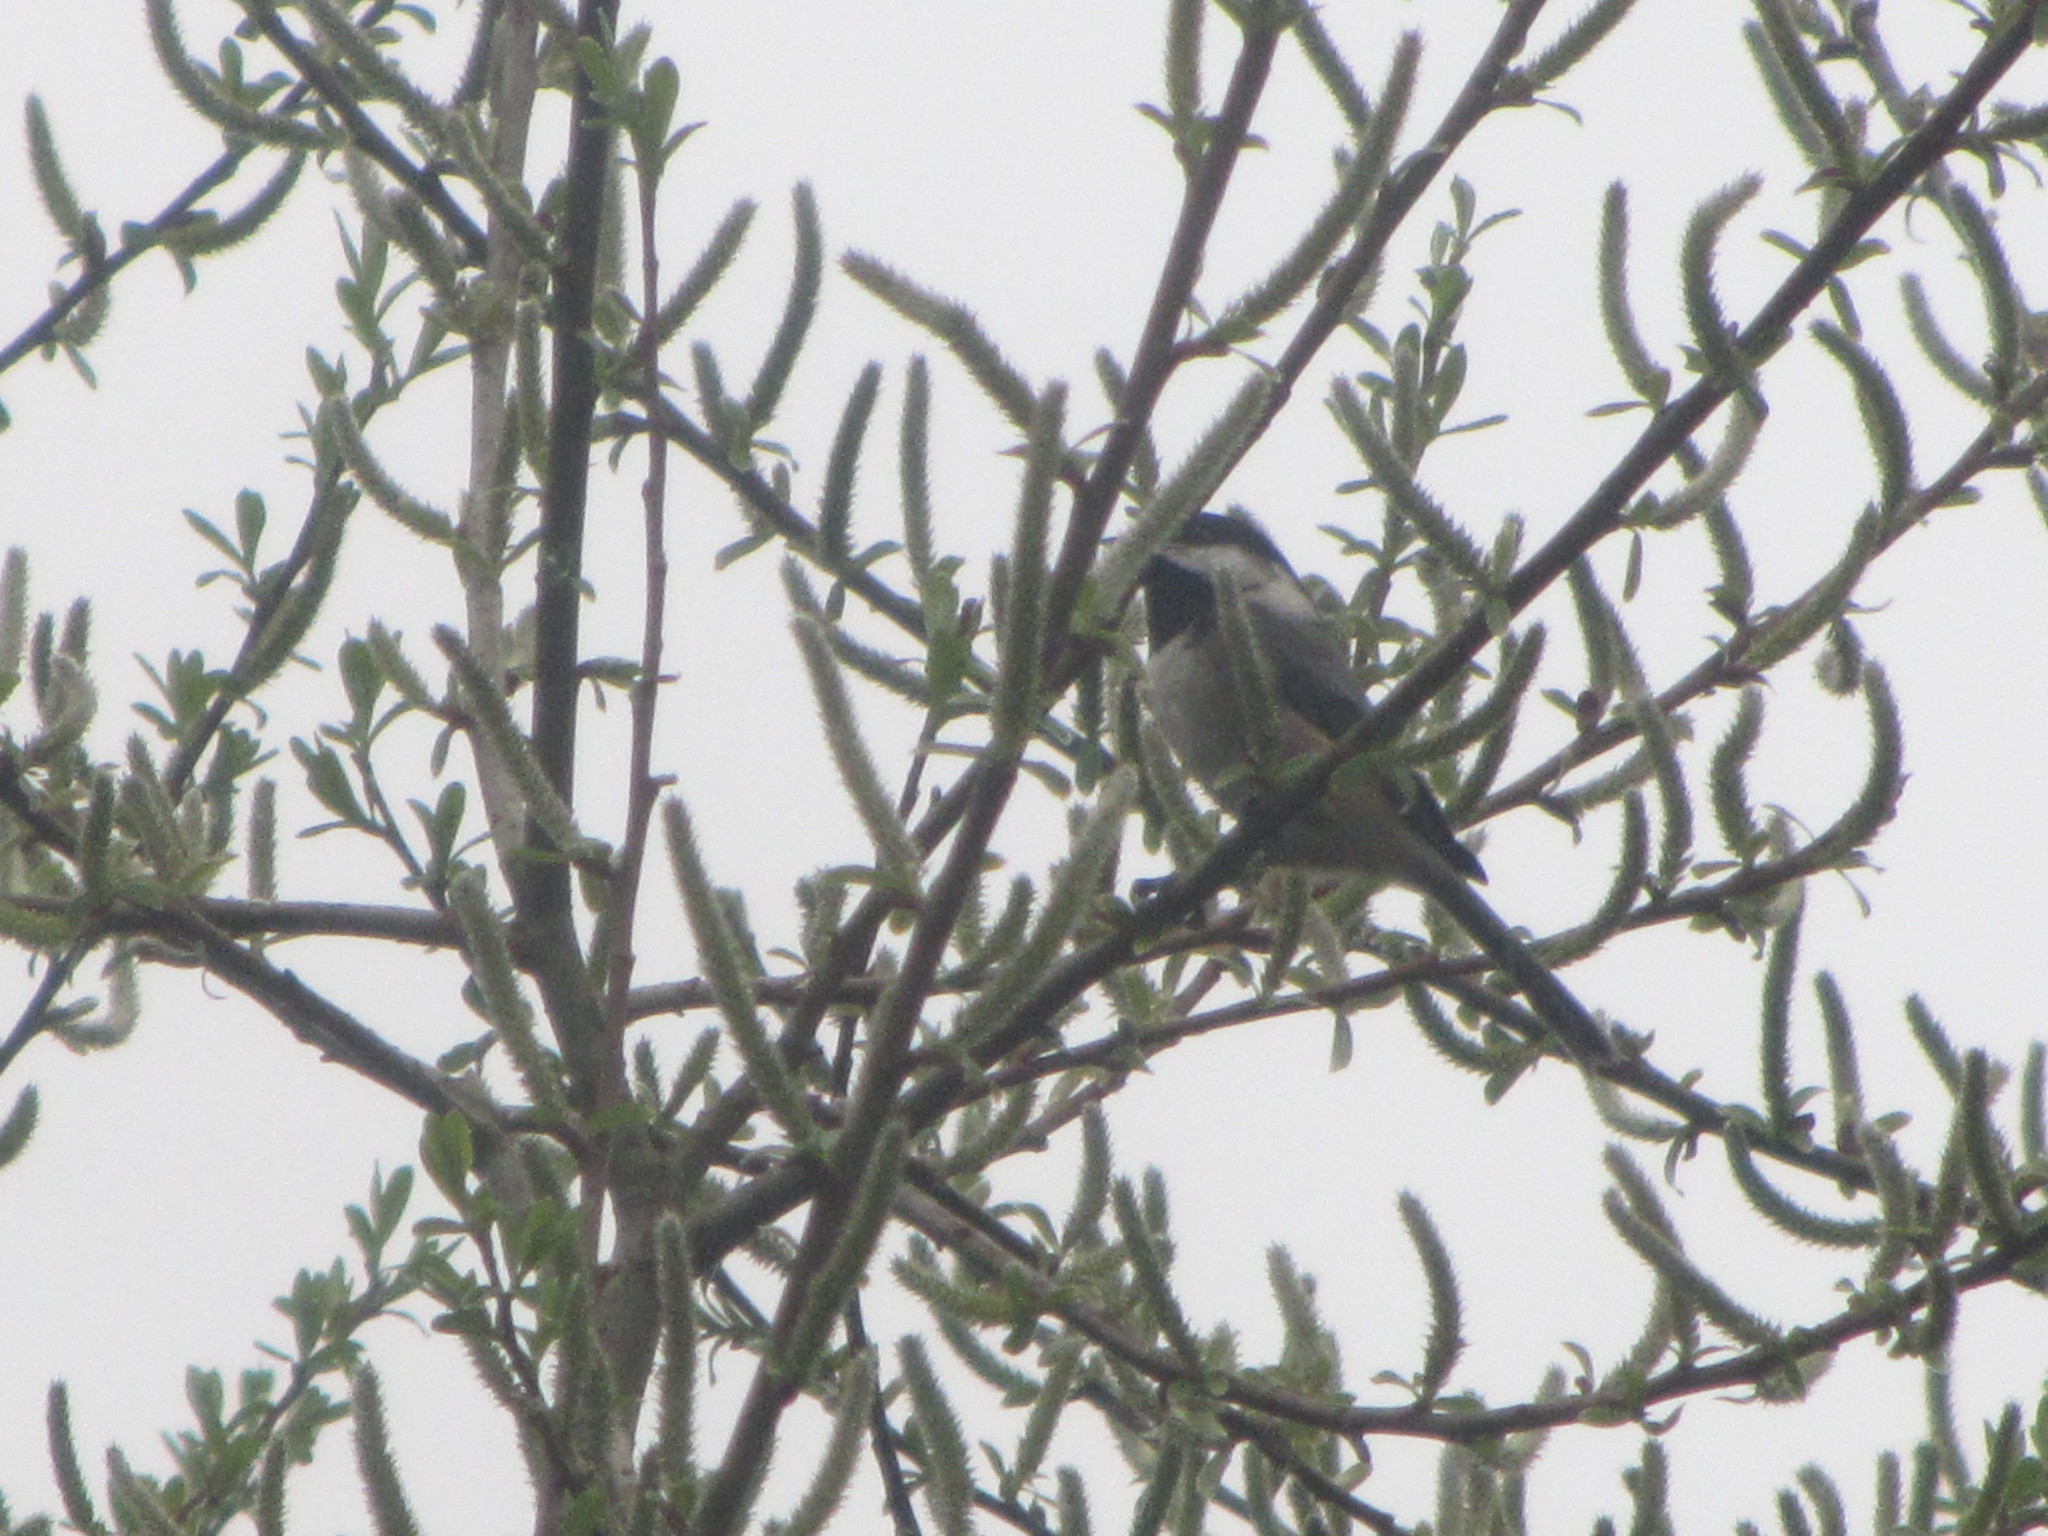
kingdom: Animalia
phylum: Chordata
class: Aves
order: Passeriformes
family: Paridae
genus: Poecile
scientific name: Poecile atricapillus
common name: Black-capped chickadee
